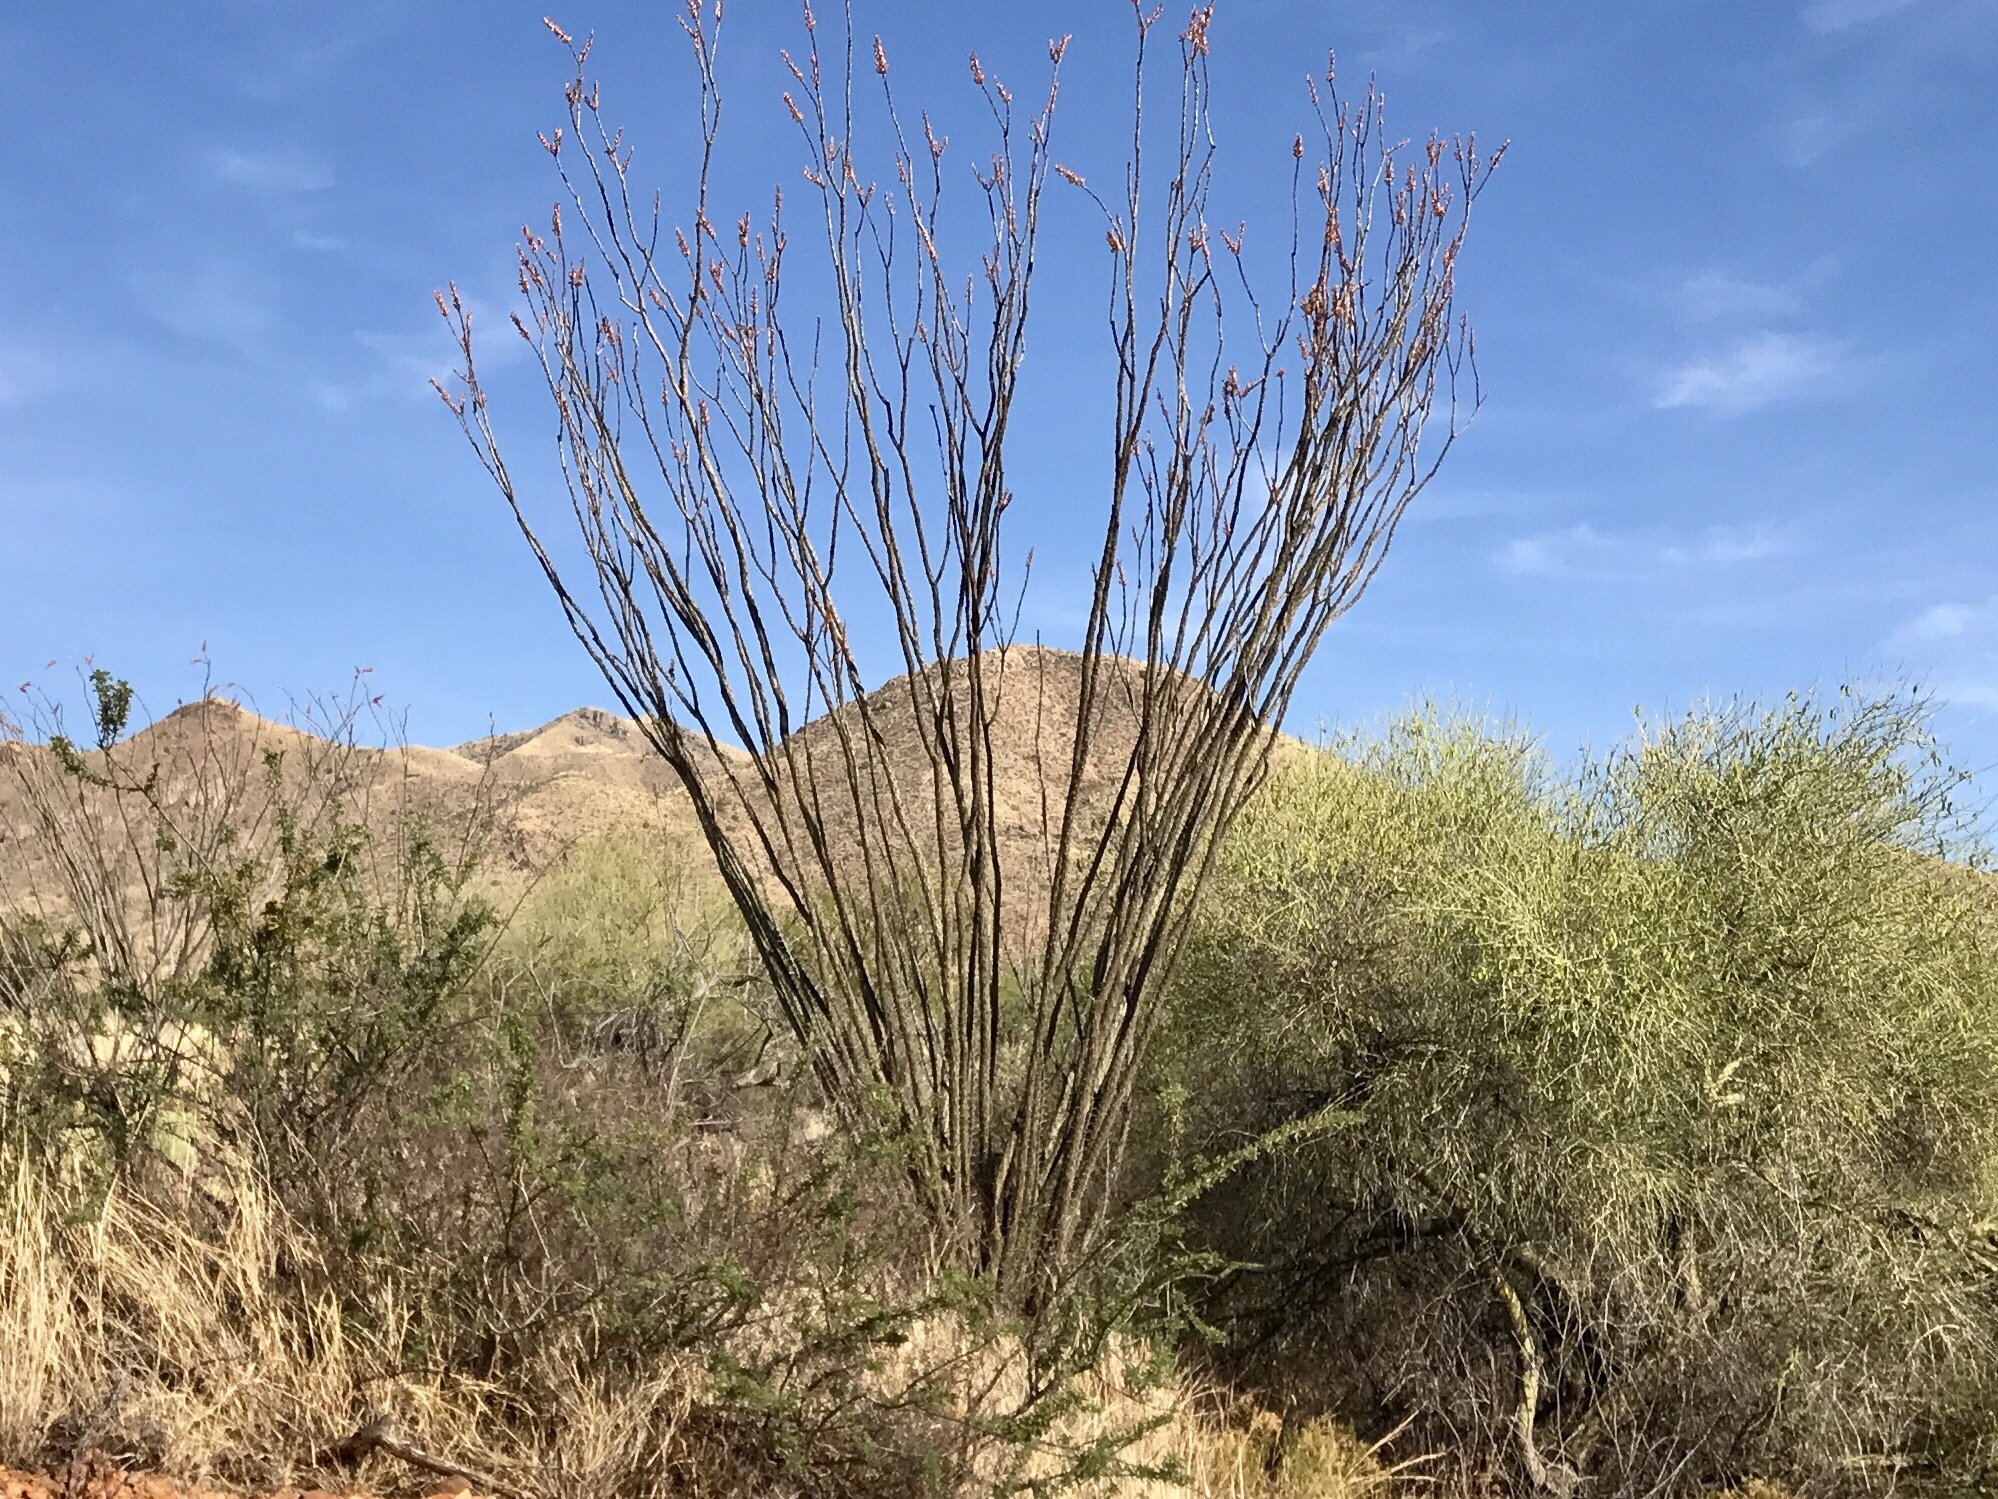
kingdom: Plantae
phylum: Tracheophyta
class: Magnoliopsida
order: Ericales
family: Fouquieriaceae
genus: Fouquieria
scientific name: Fouquieria splendens
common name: Vine-cactus
